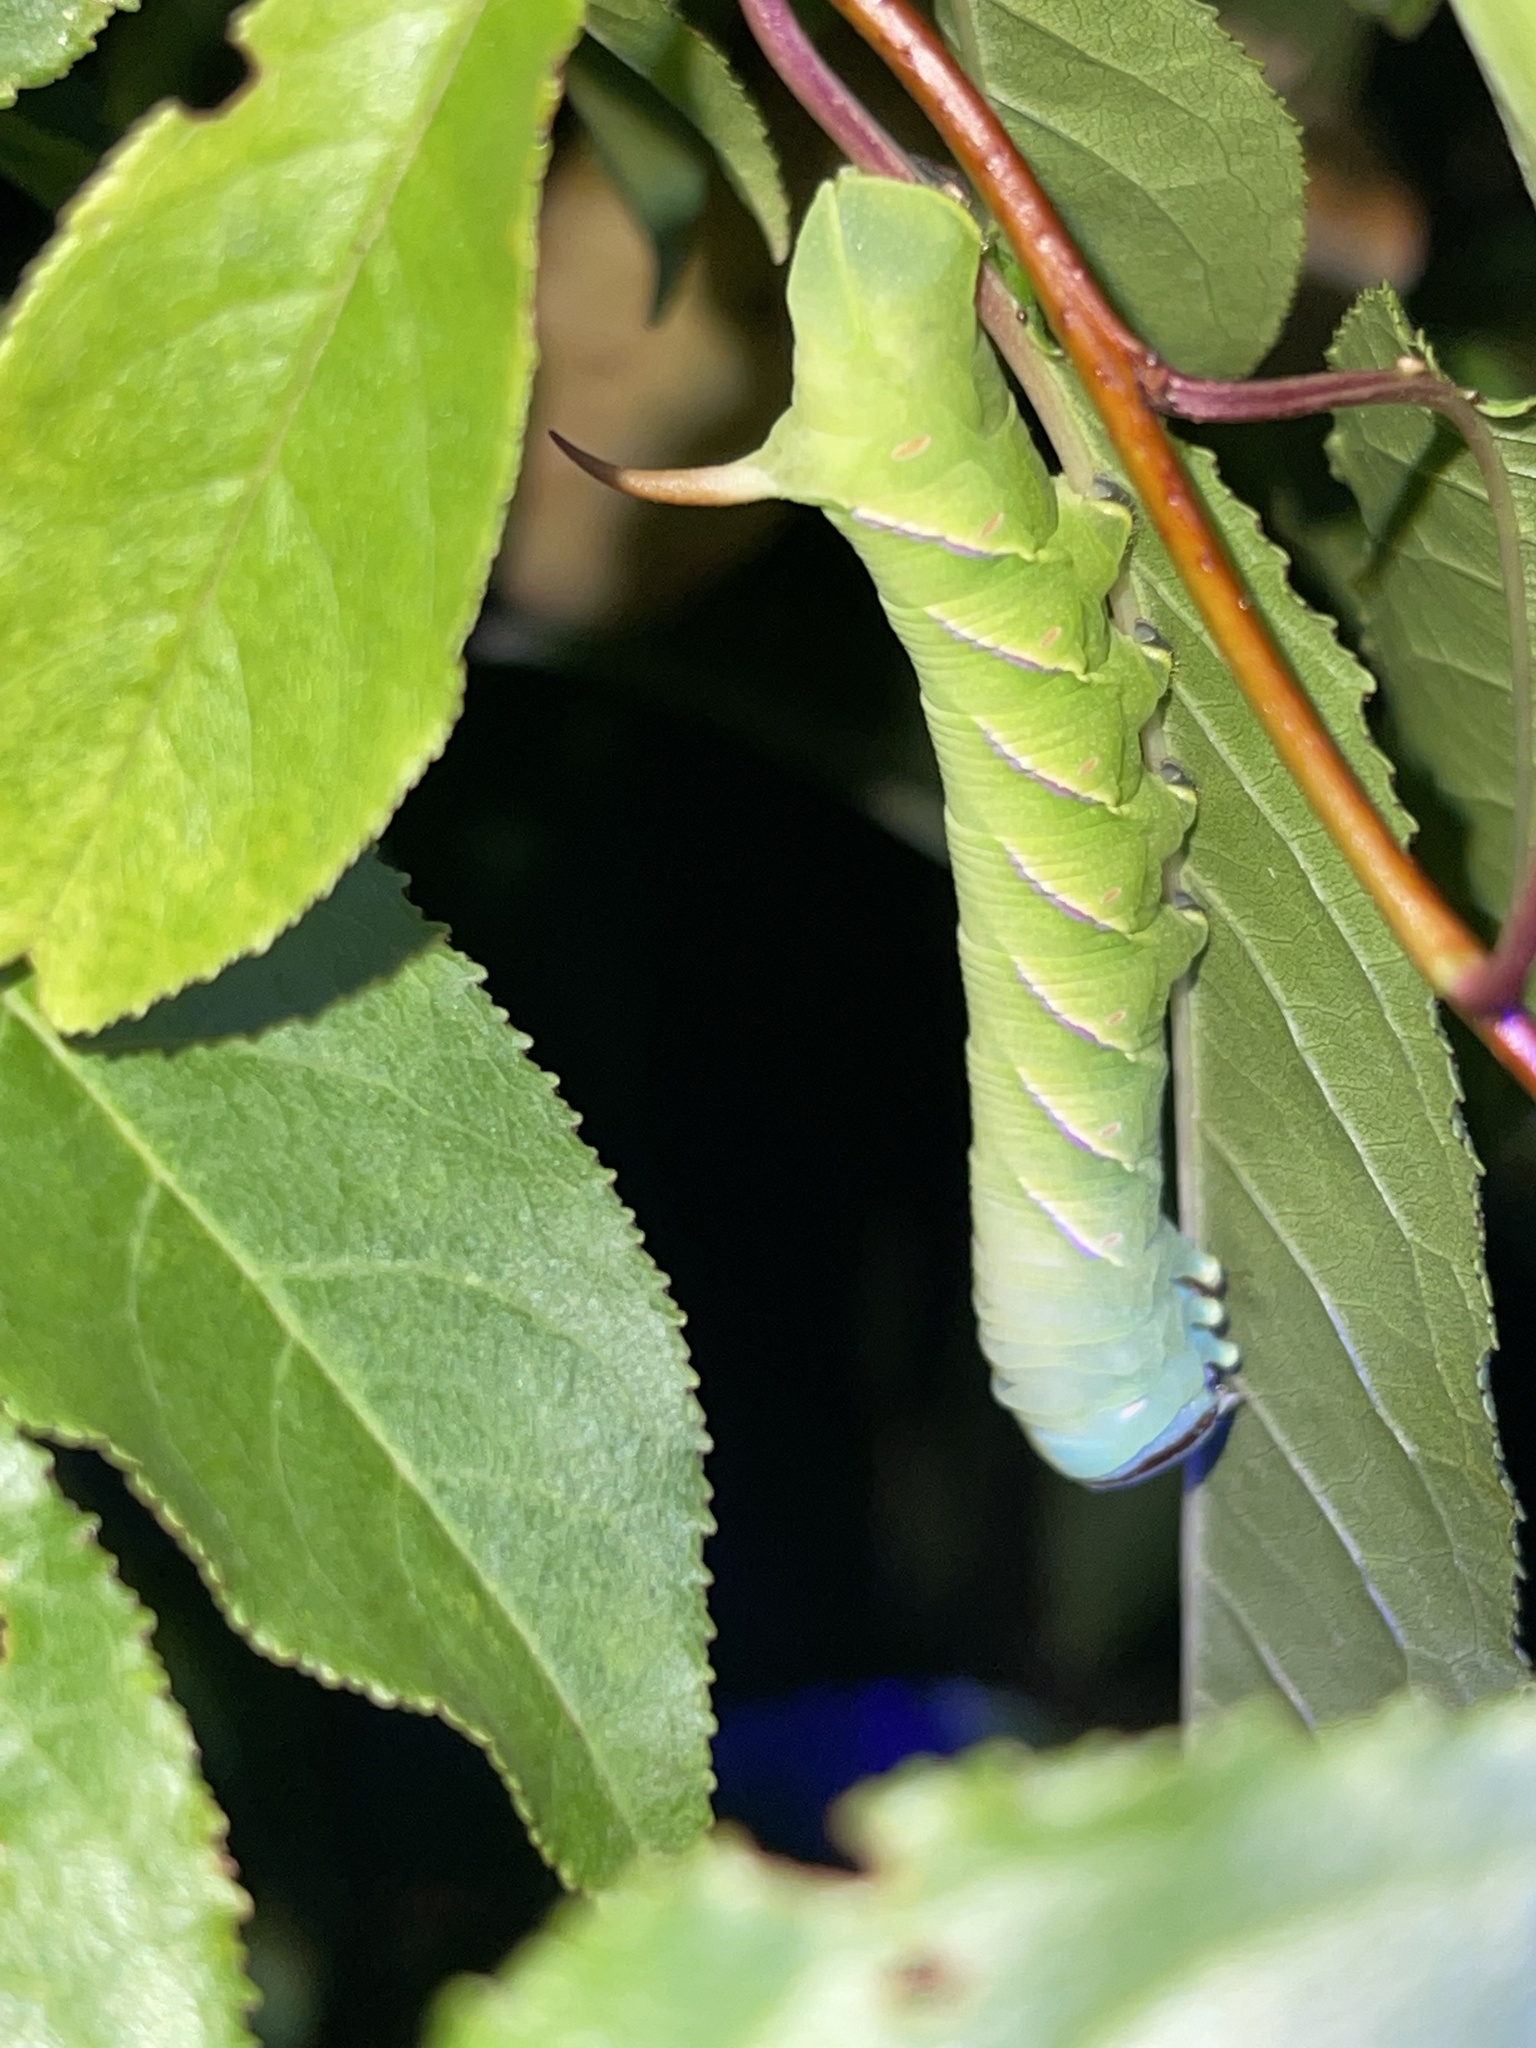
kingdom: Animalia
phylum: Arthropoda
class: Insecta
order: Lepidoptera
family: Sphingidae
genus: Sphinx
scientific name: Sphinx drupiferarum
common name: Wild cherry sphinx
